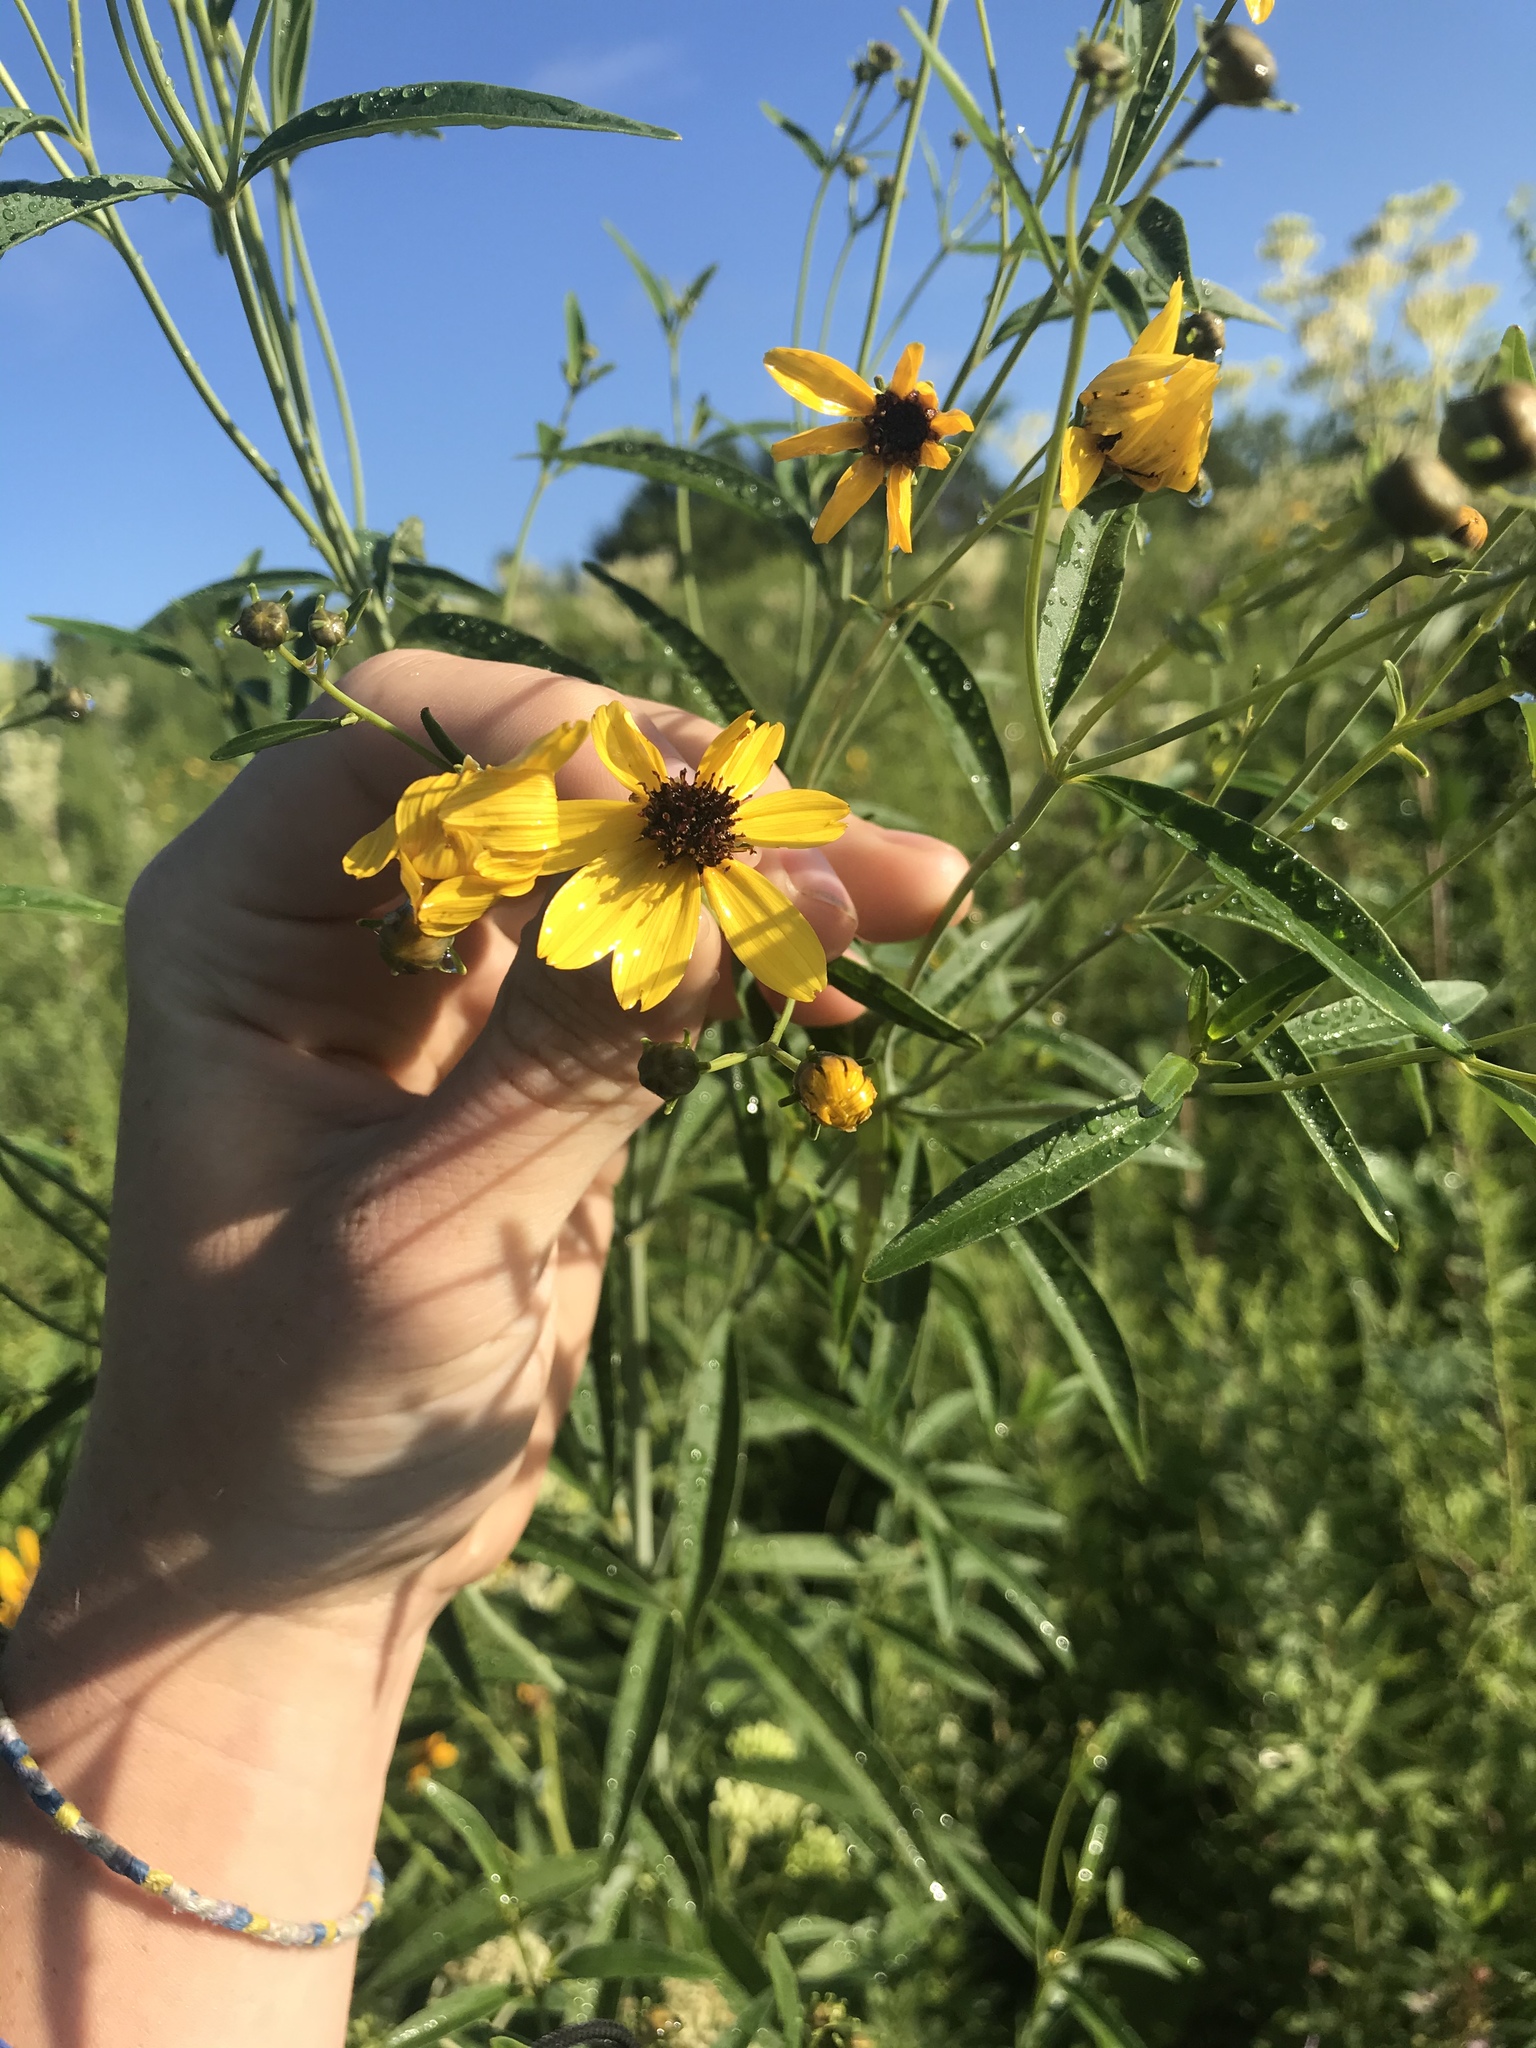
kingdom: Plantae
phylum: Tracheophyta
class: Magnoliopsida
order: Asterales
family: Asteraceae
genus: Coreopsis
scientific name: Coreopsis tripteris
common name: Tall coreopsis
